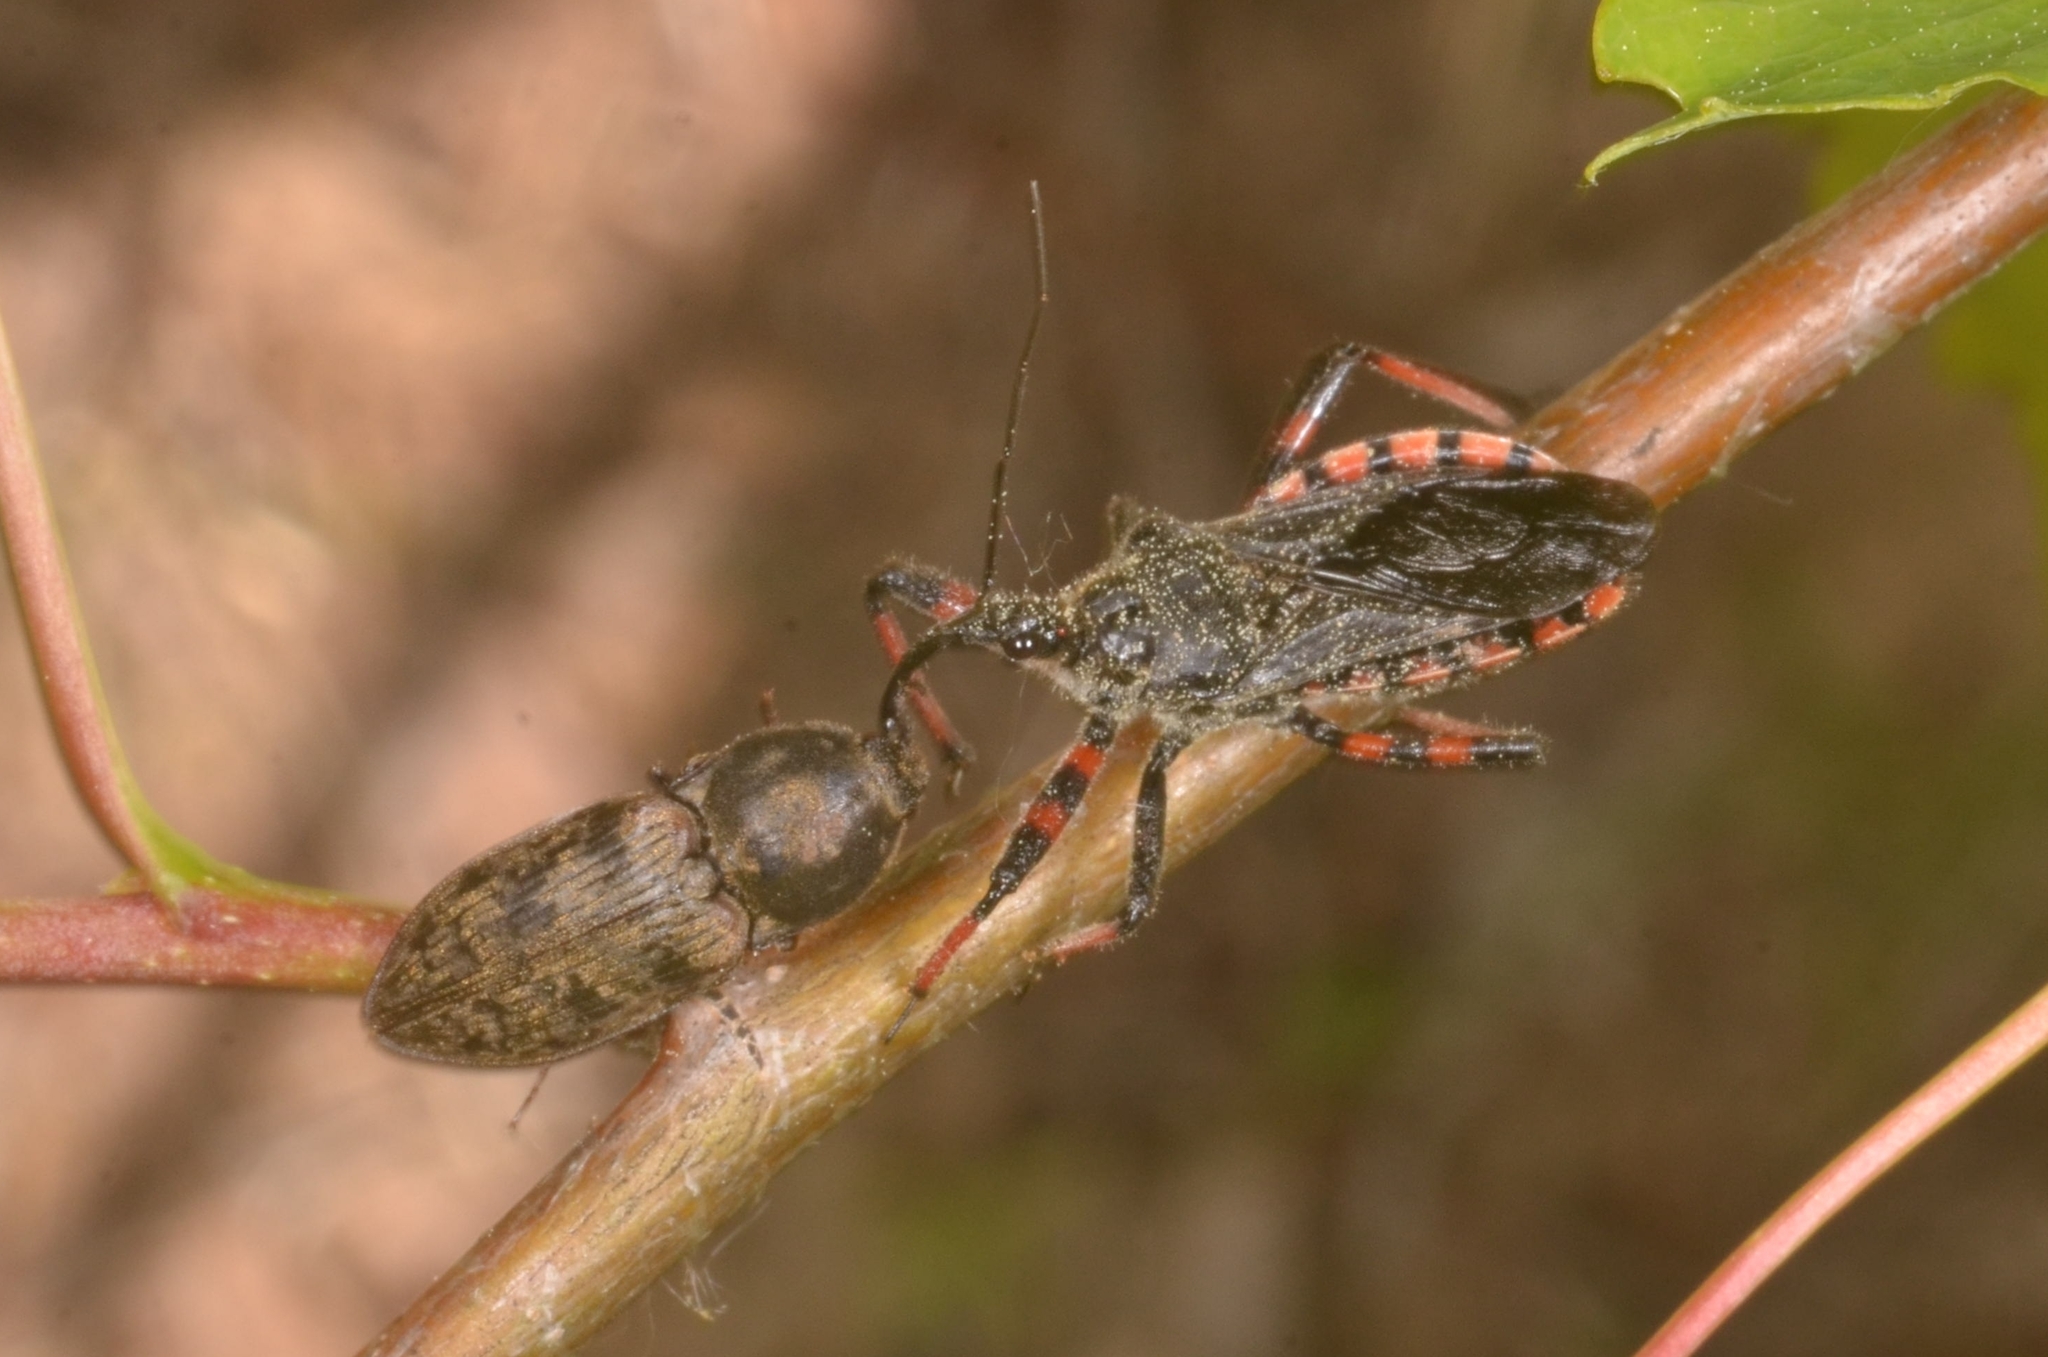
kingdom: Animalia
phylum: Arthropoda
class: Insecta
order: Hemiptera
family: Reduviidae
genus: Rhynocoris
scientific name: Rhynocoris annulatus
